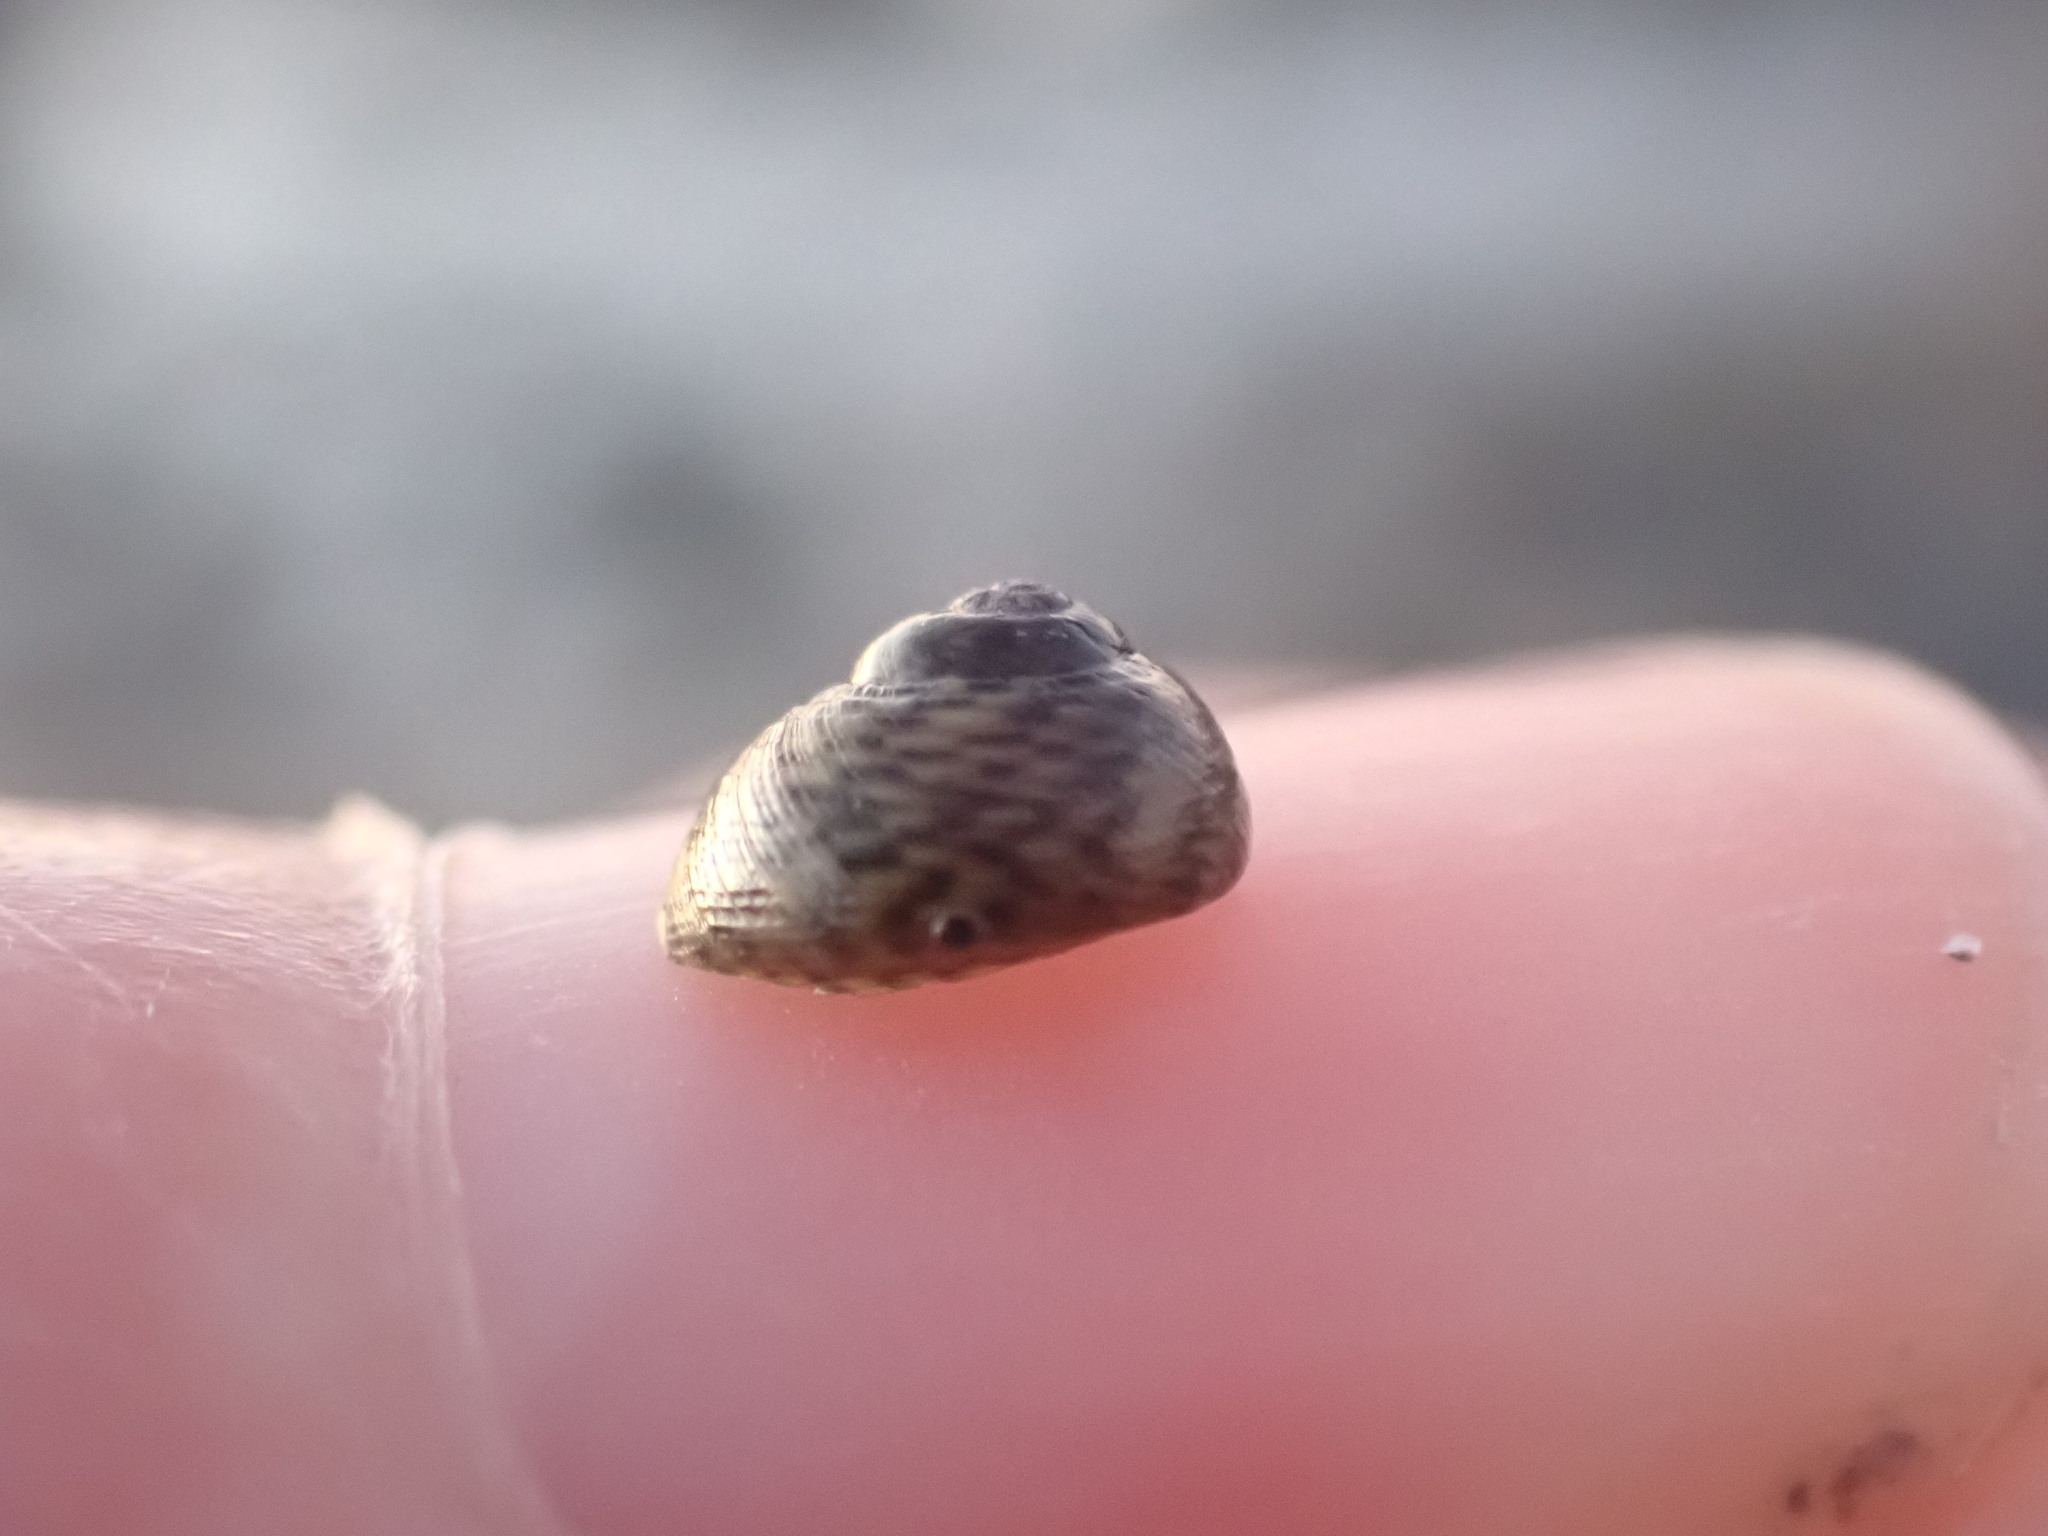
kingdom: Animalia
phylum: Mollusca
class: Gastropoda
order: Trochida
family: Trochidae
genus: Diloma
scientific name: Diloma coracinum
